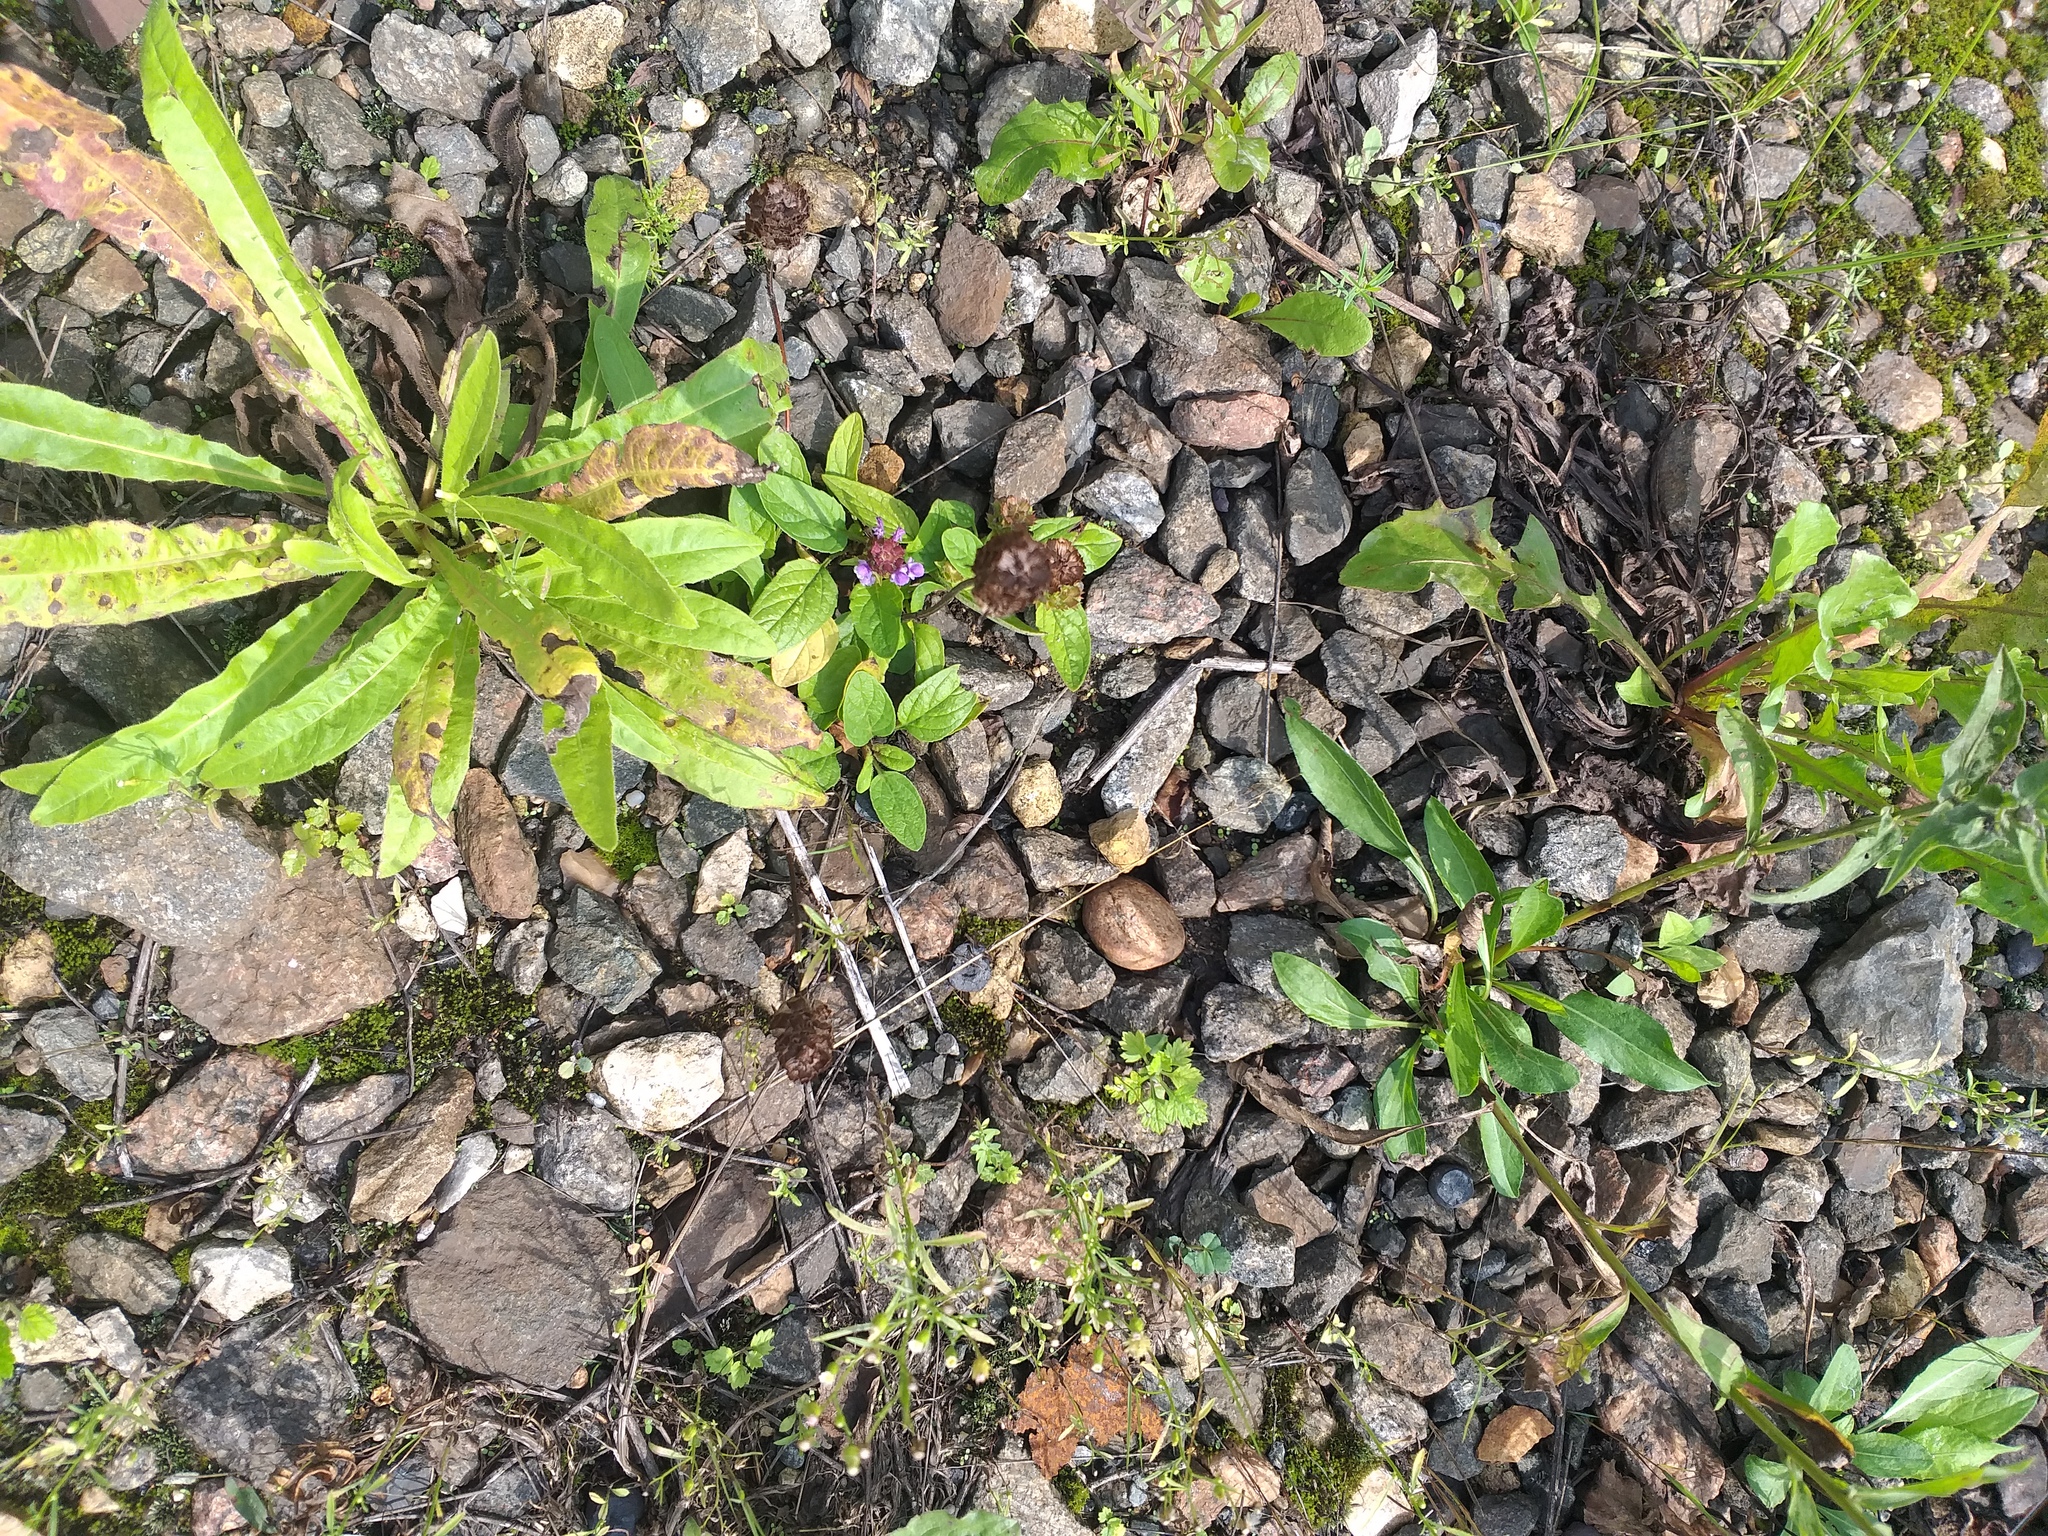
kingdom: Plantae
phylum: Tracheophyta
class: Magnoliopsida
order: Lamiales
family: Lamiaceae
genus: Prunella
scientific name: Prunella vulgaris
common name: Heal-all
